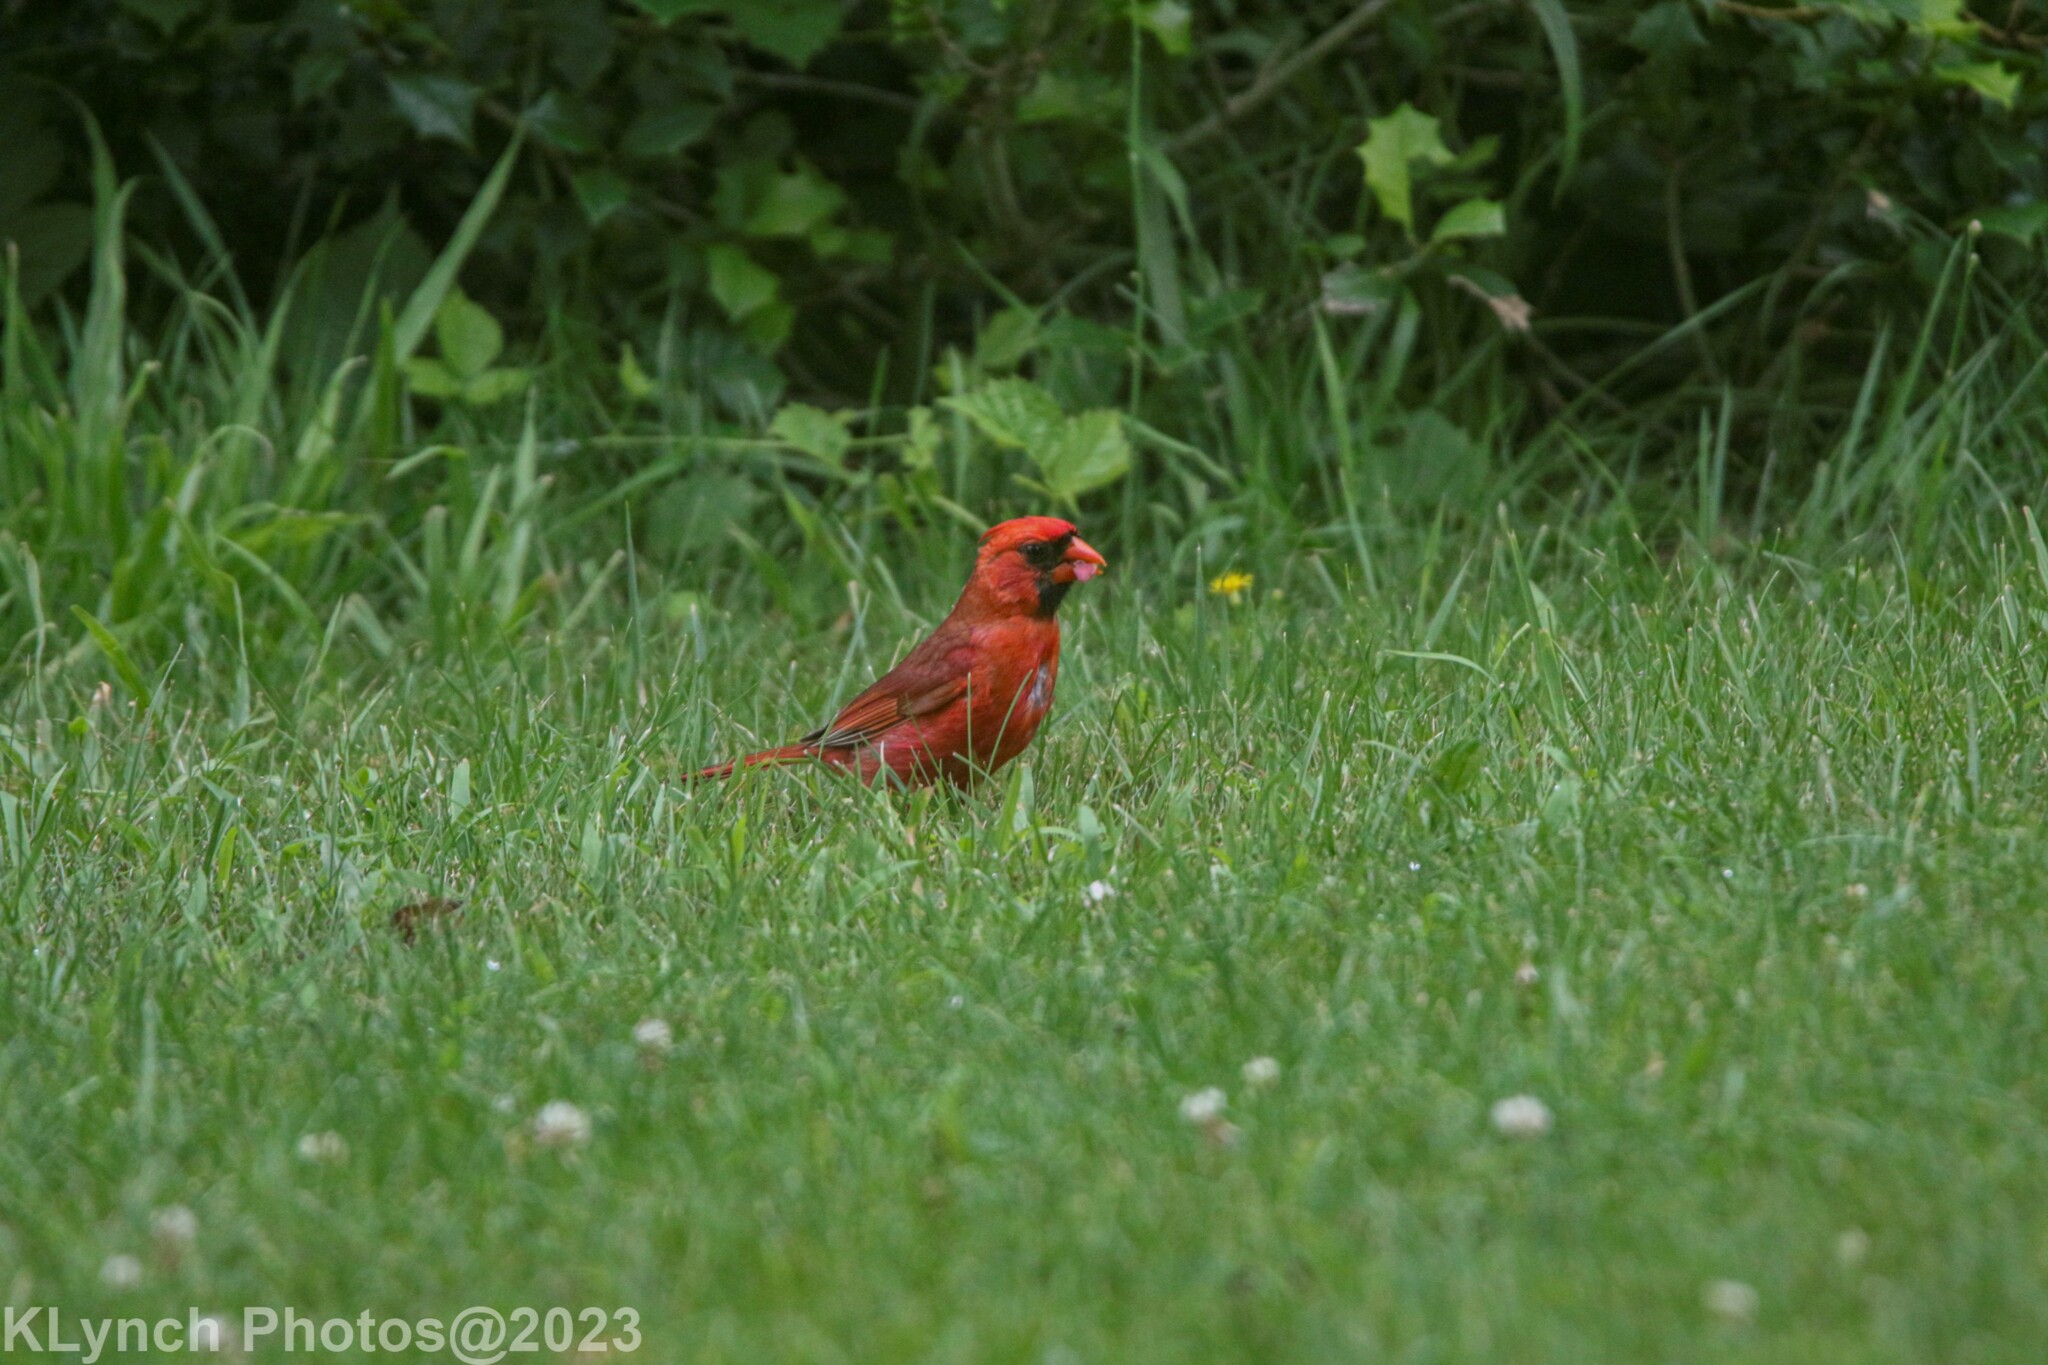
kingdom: Animalia
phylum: Chordata
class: Aves
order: Passeriformes
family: Cardinalidae
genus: Cardinalis
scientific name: Cardinalis cardinalis
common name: Northern cardinal
